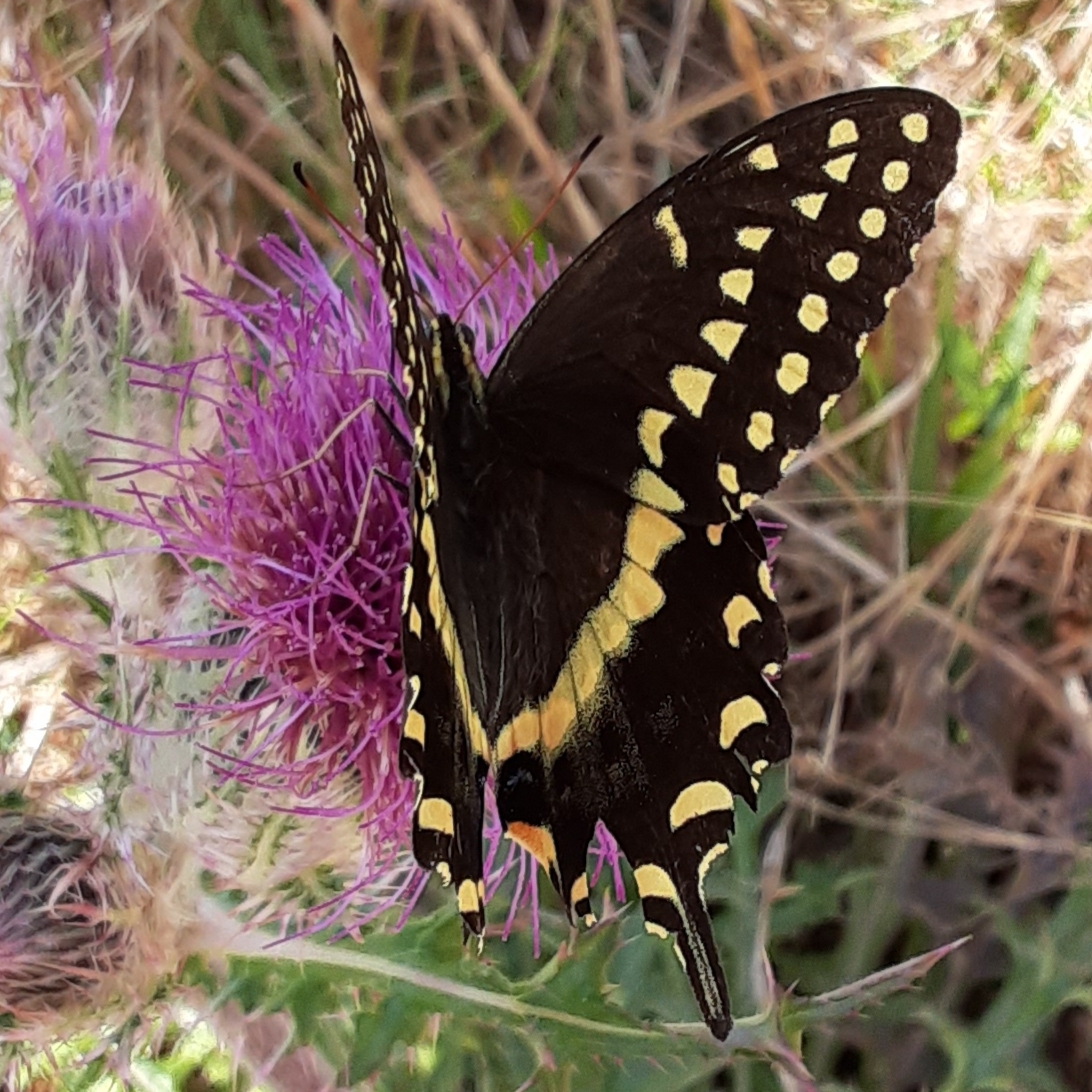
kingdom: Animalia
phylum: Arthropoda
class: Insecta
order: Lepidoptera
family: Papilionidae
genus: Papilio
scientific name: Papilio palamedes
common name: Palamedes swallowtail
